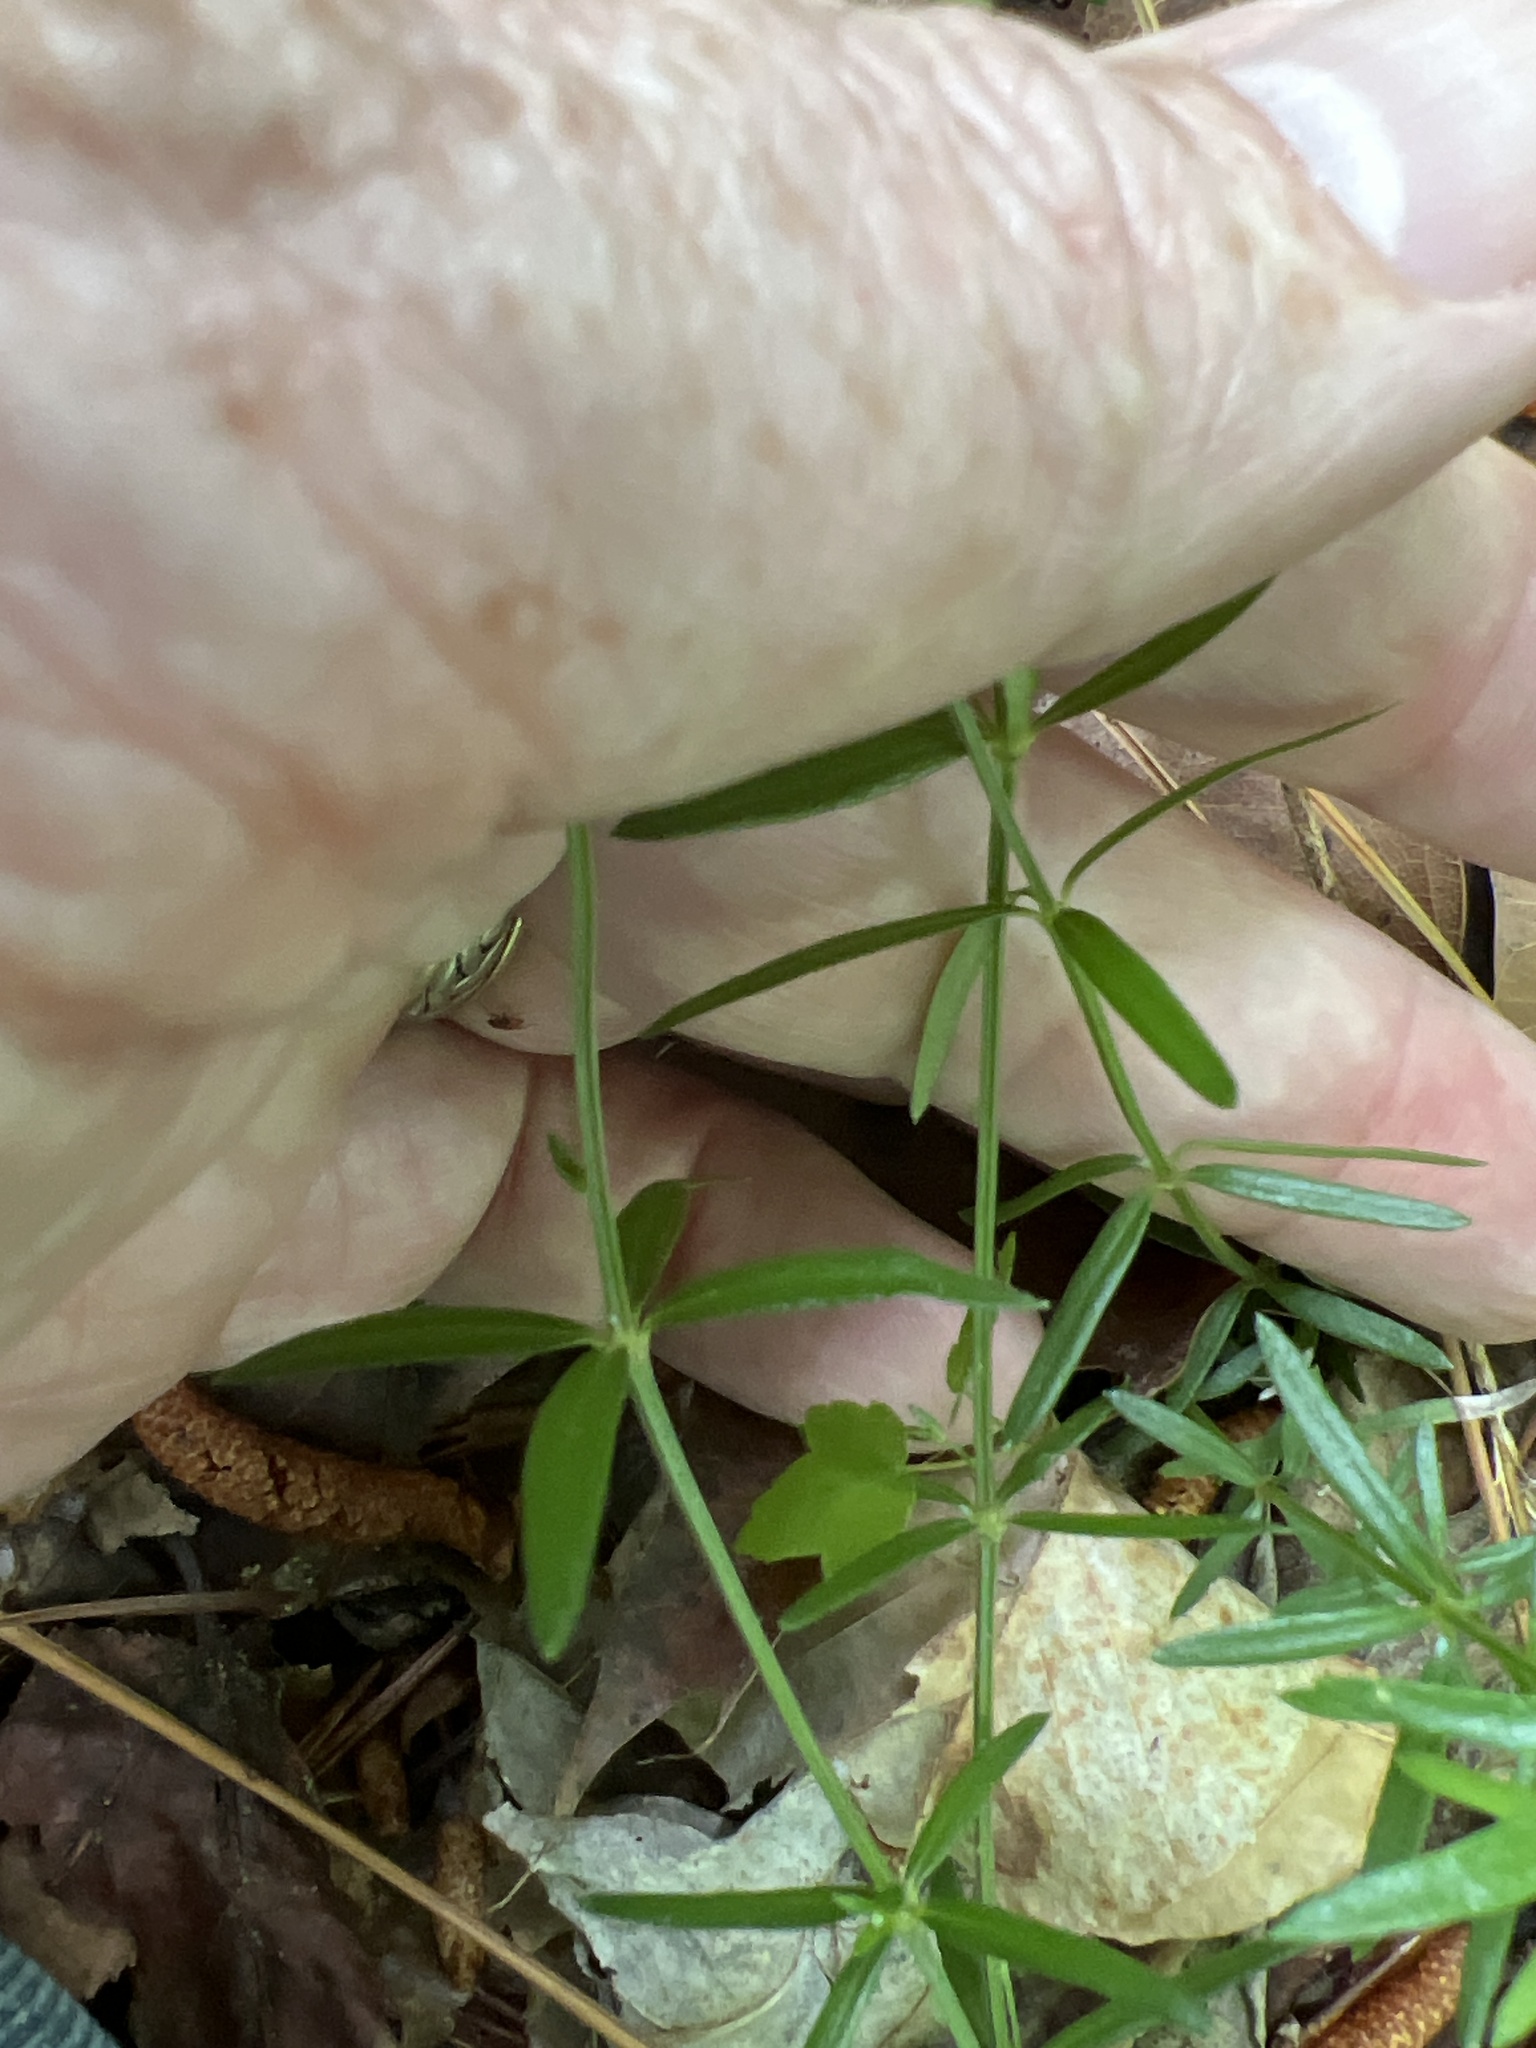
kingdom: Plantae
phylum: Tracheophyta
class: Magnoliopsida
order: Gentianales
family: Rubiaceae
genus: Galium
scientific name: Galium uniflorum
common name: One-flower bedstraw
